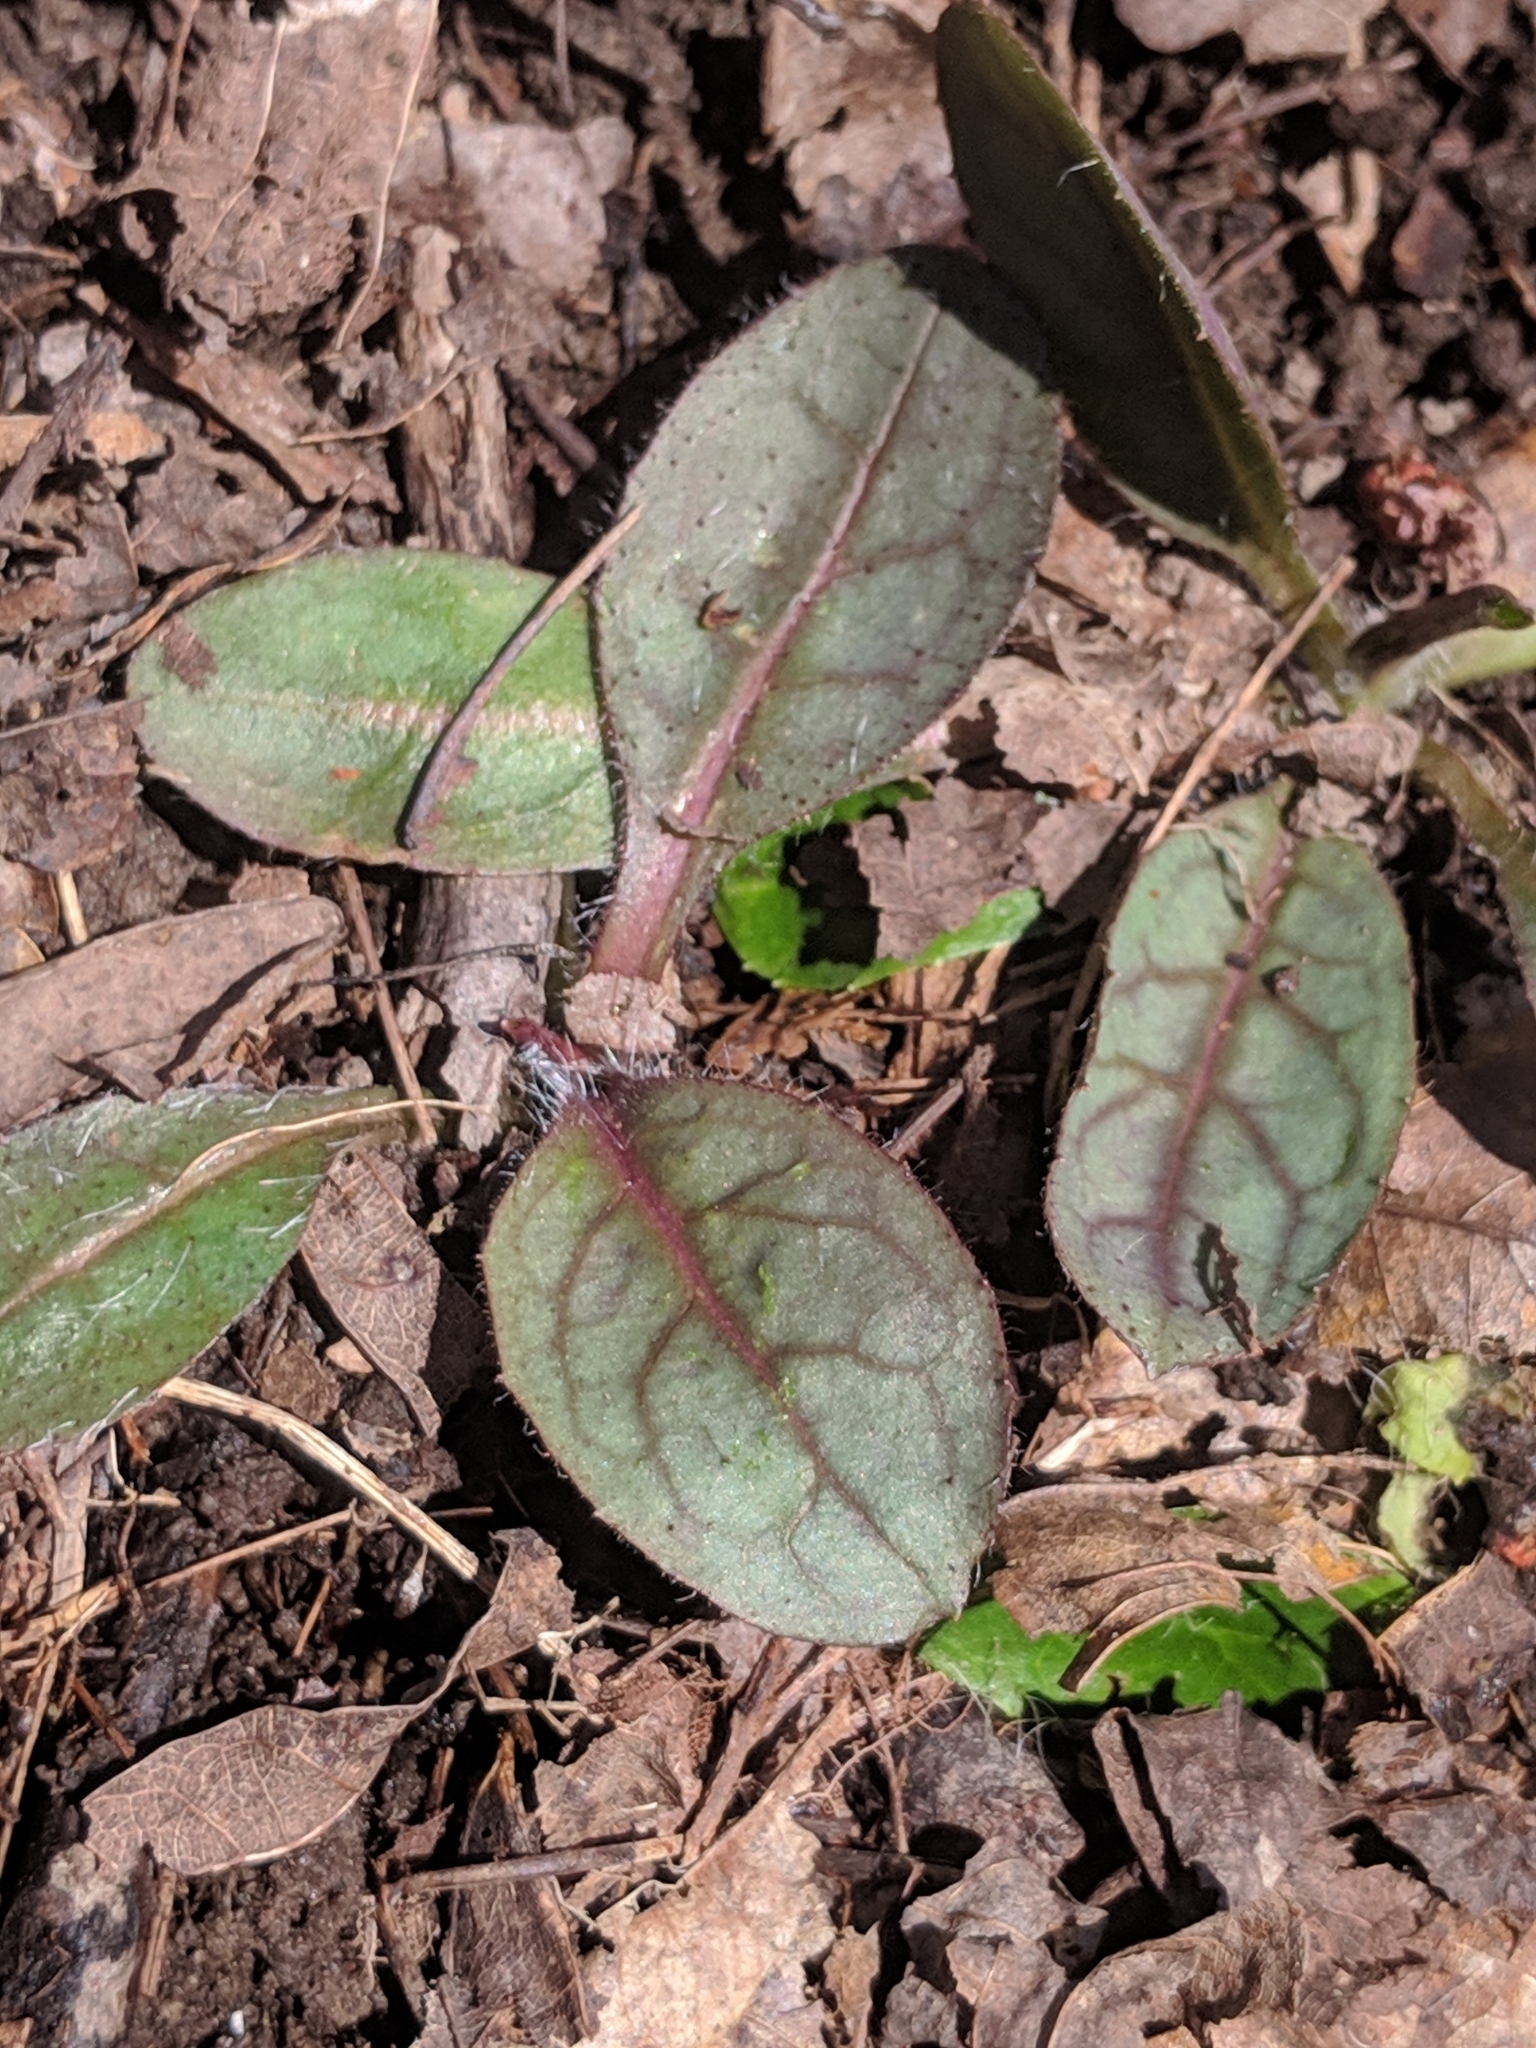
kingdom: Plantae
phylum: Tracheophyta
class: Magnoliopsida
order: Asterales
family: Asteraceae
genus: Hieracium
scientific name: Hieracium venosum
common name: Rattlesnake hawkweed
